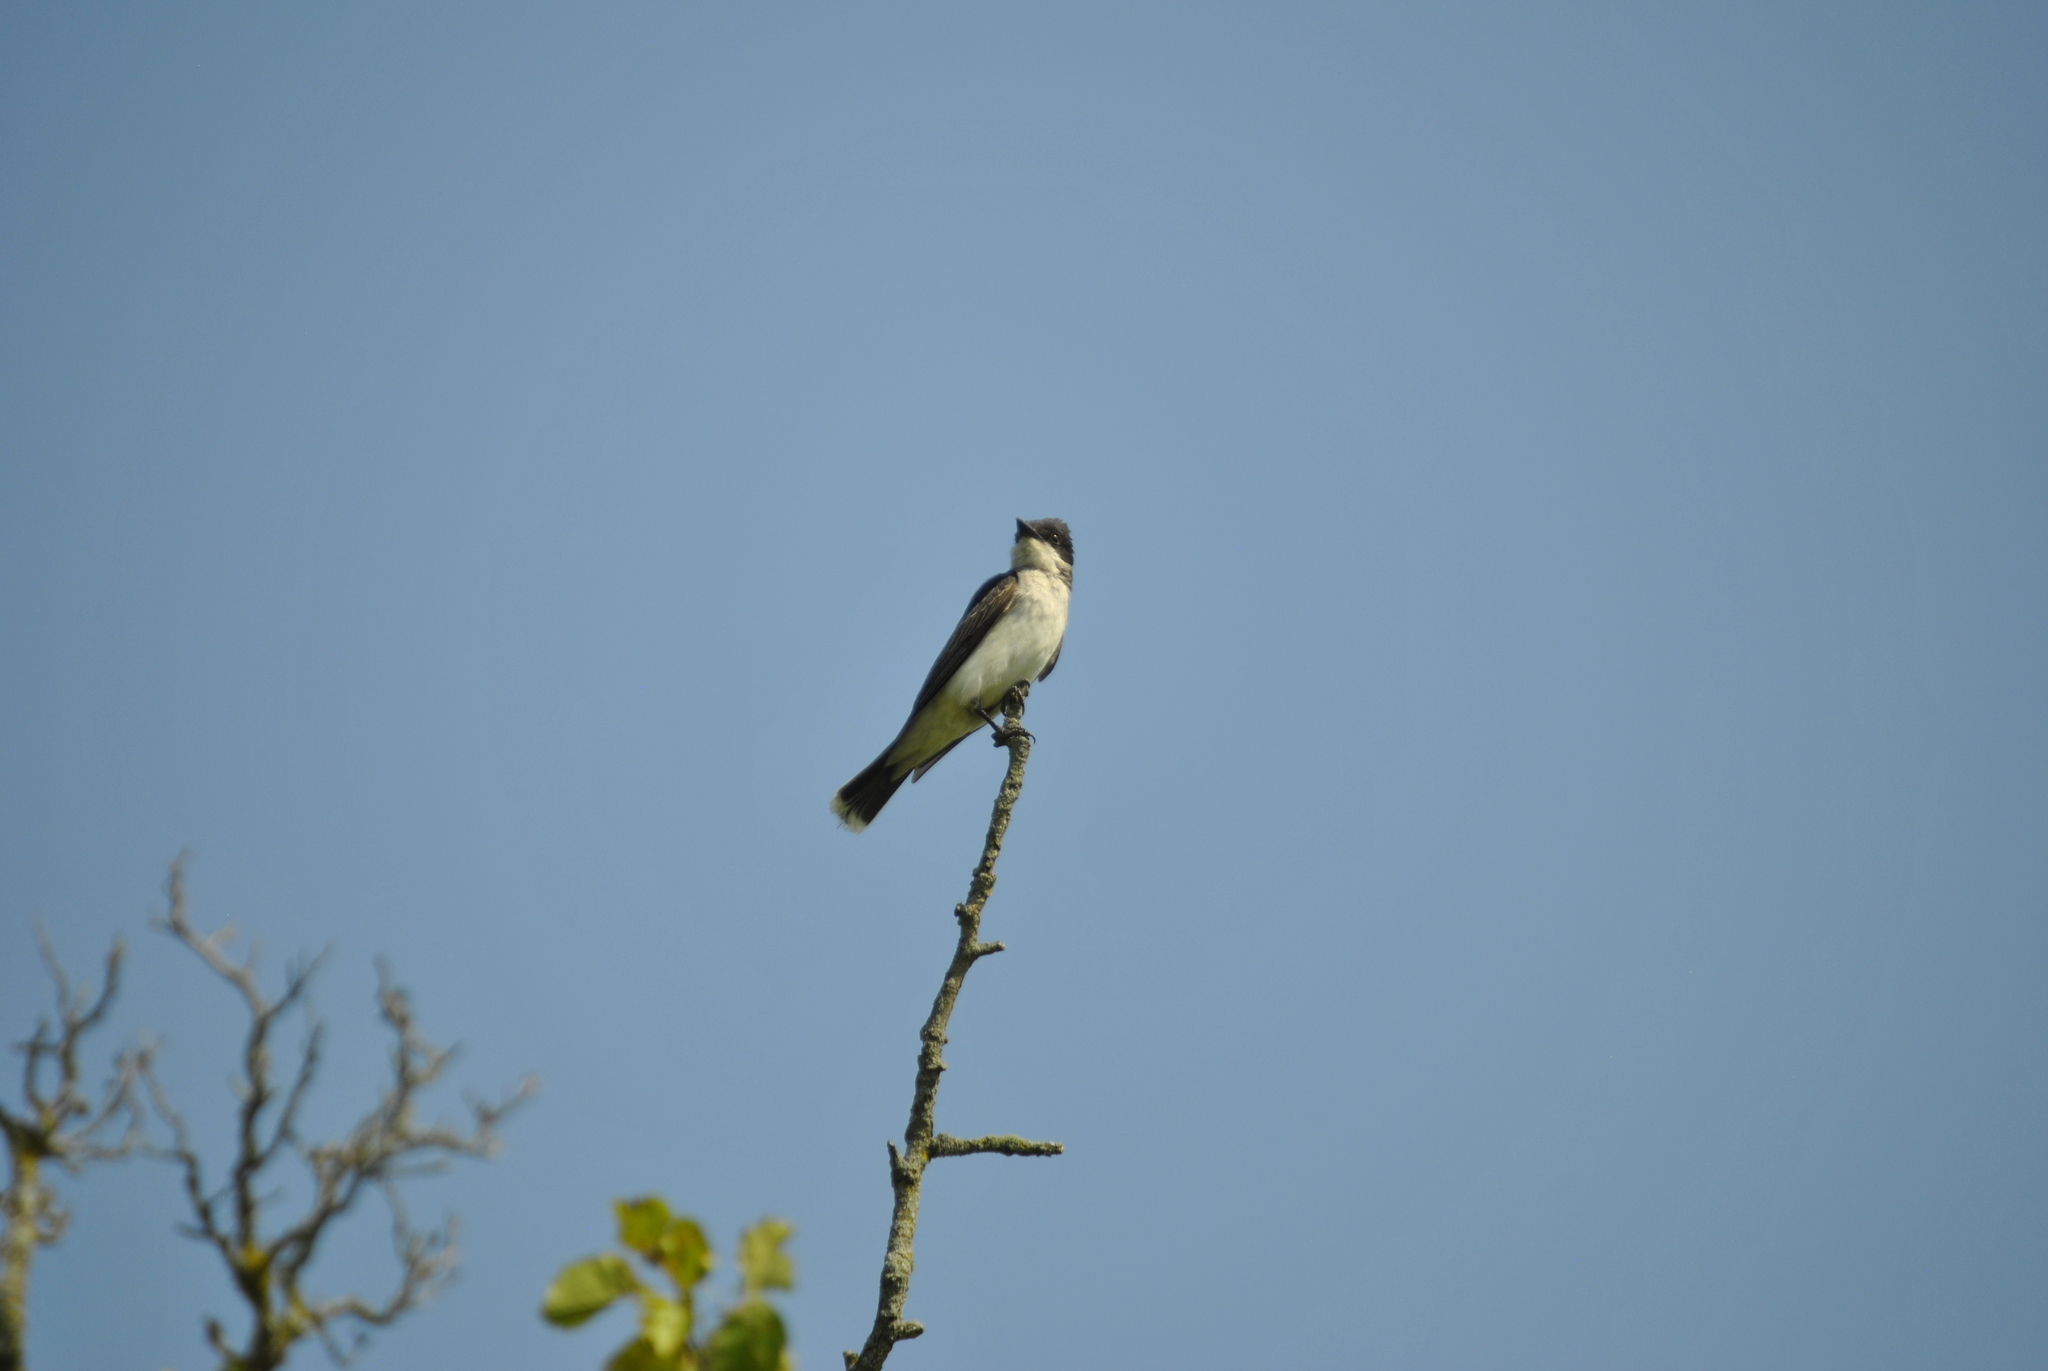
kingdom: Animalia
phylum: Chordata
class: Aves
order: Passeriformes
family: Tyrannidae
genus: Tyrannus
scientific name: Tyrannus tyrannus
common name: Eastern kingbird
